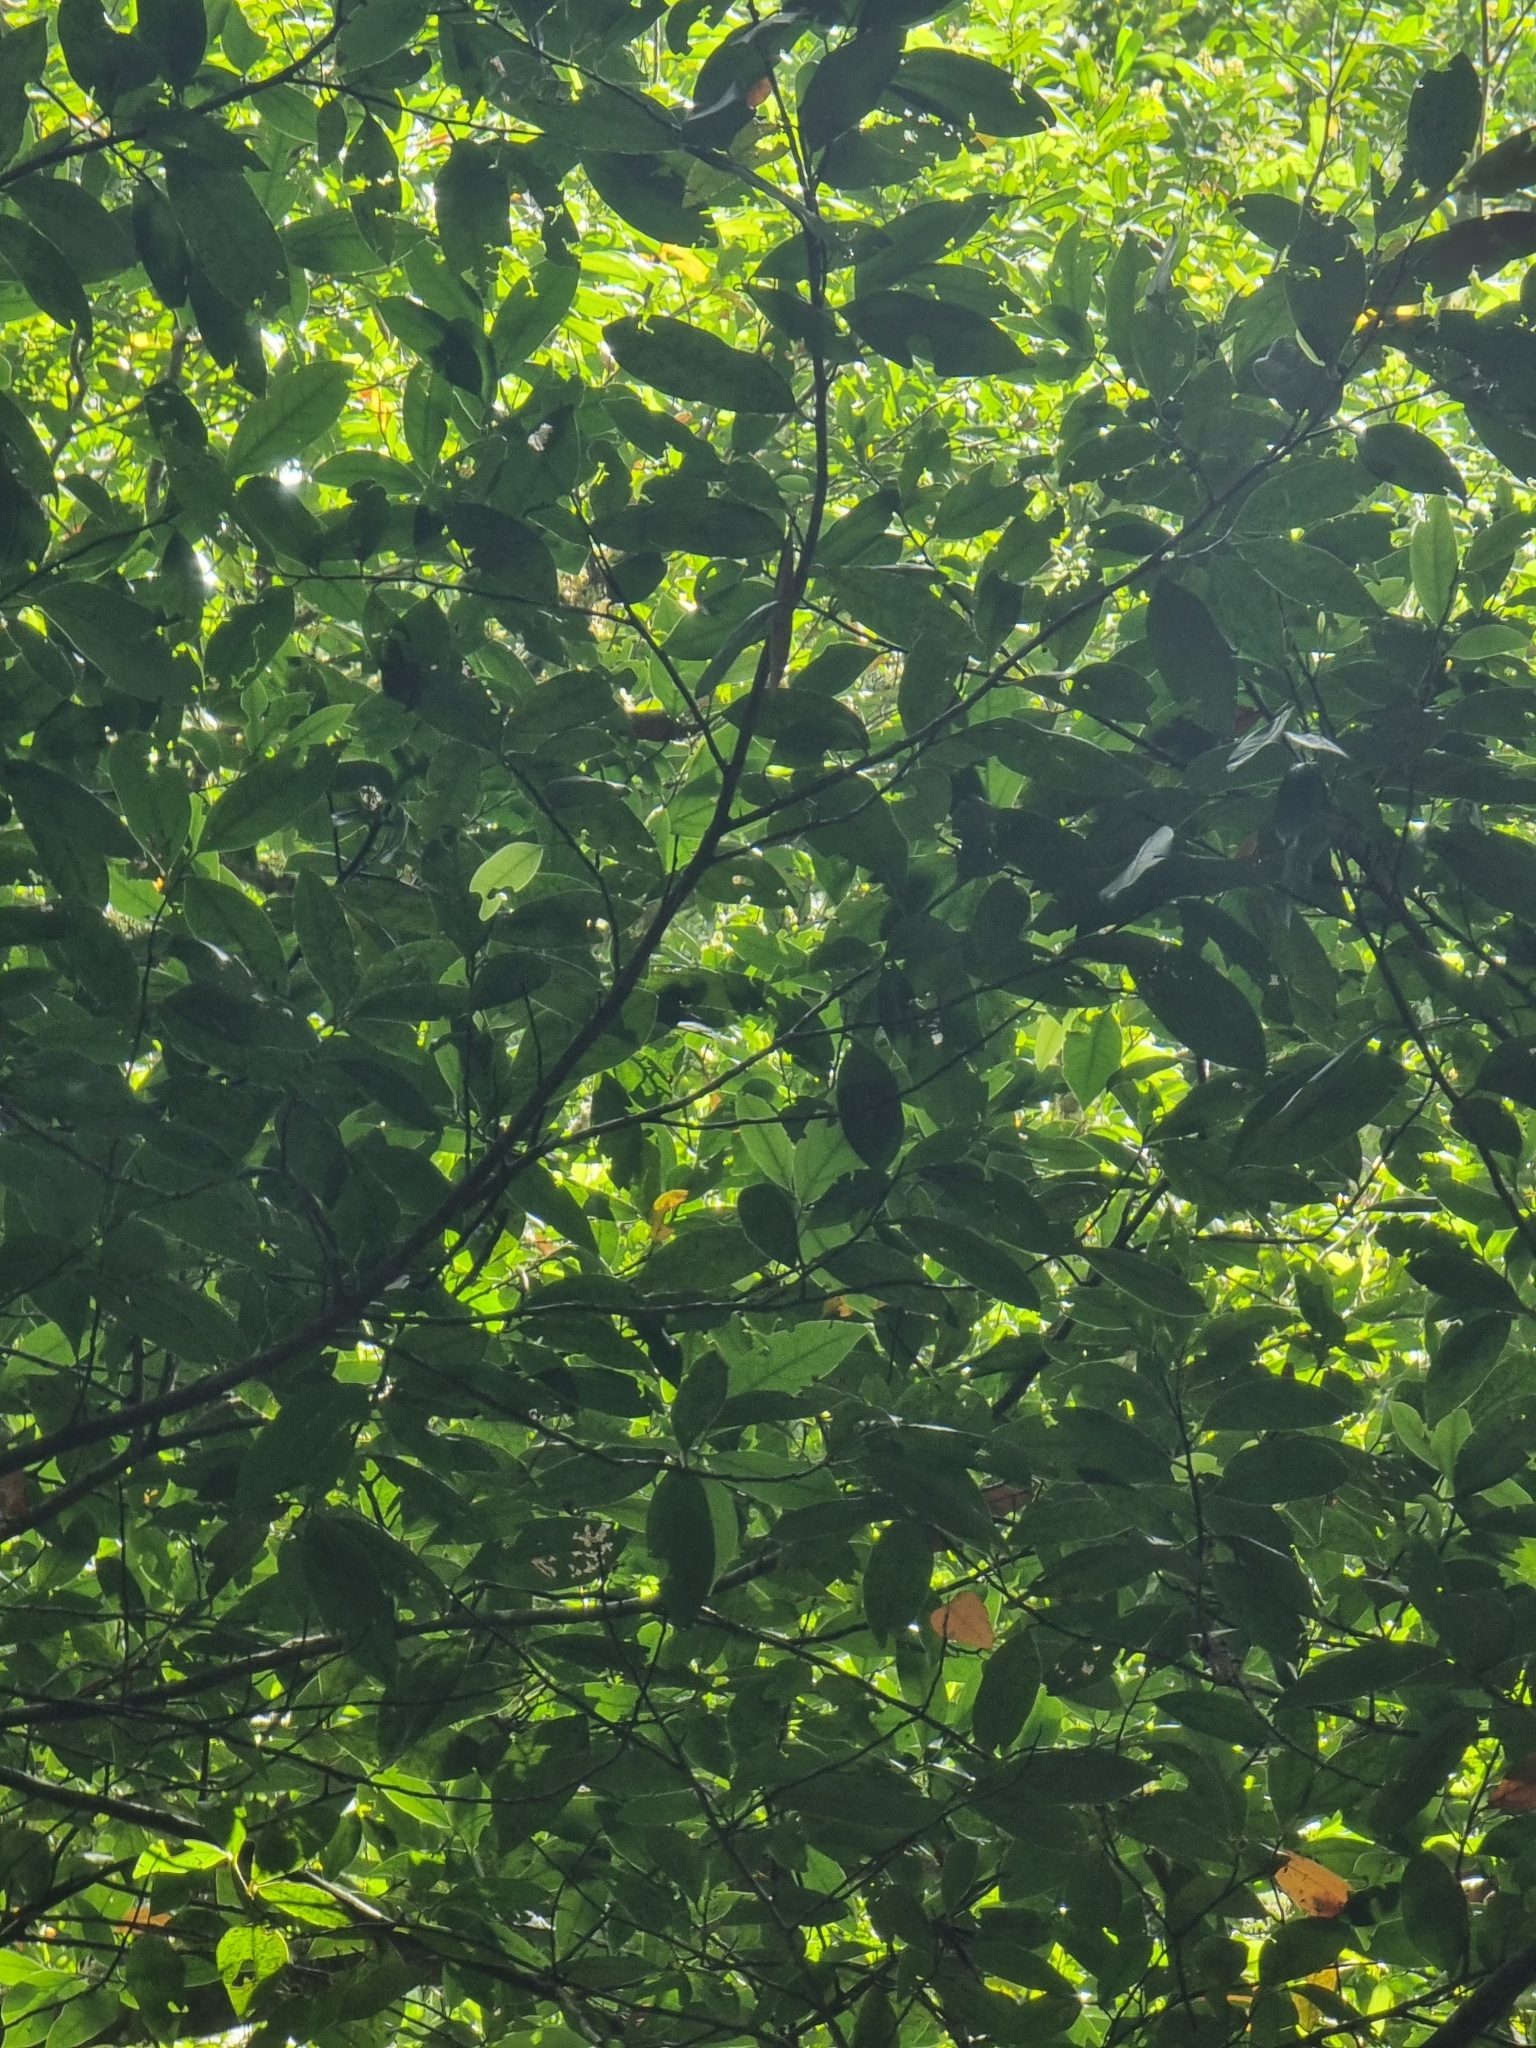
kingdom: Plantae
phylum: Tracheophyta
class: Magnoliopsida
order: Laurales
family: Lauraceae
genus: Mespilodaphne
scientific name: Mespilodaphne foetens
